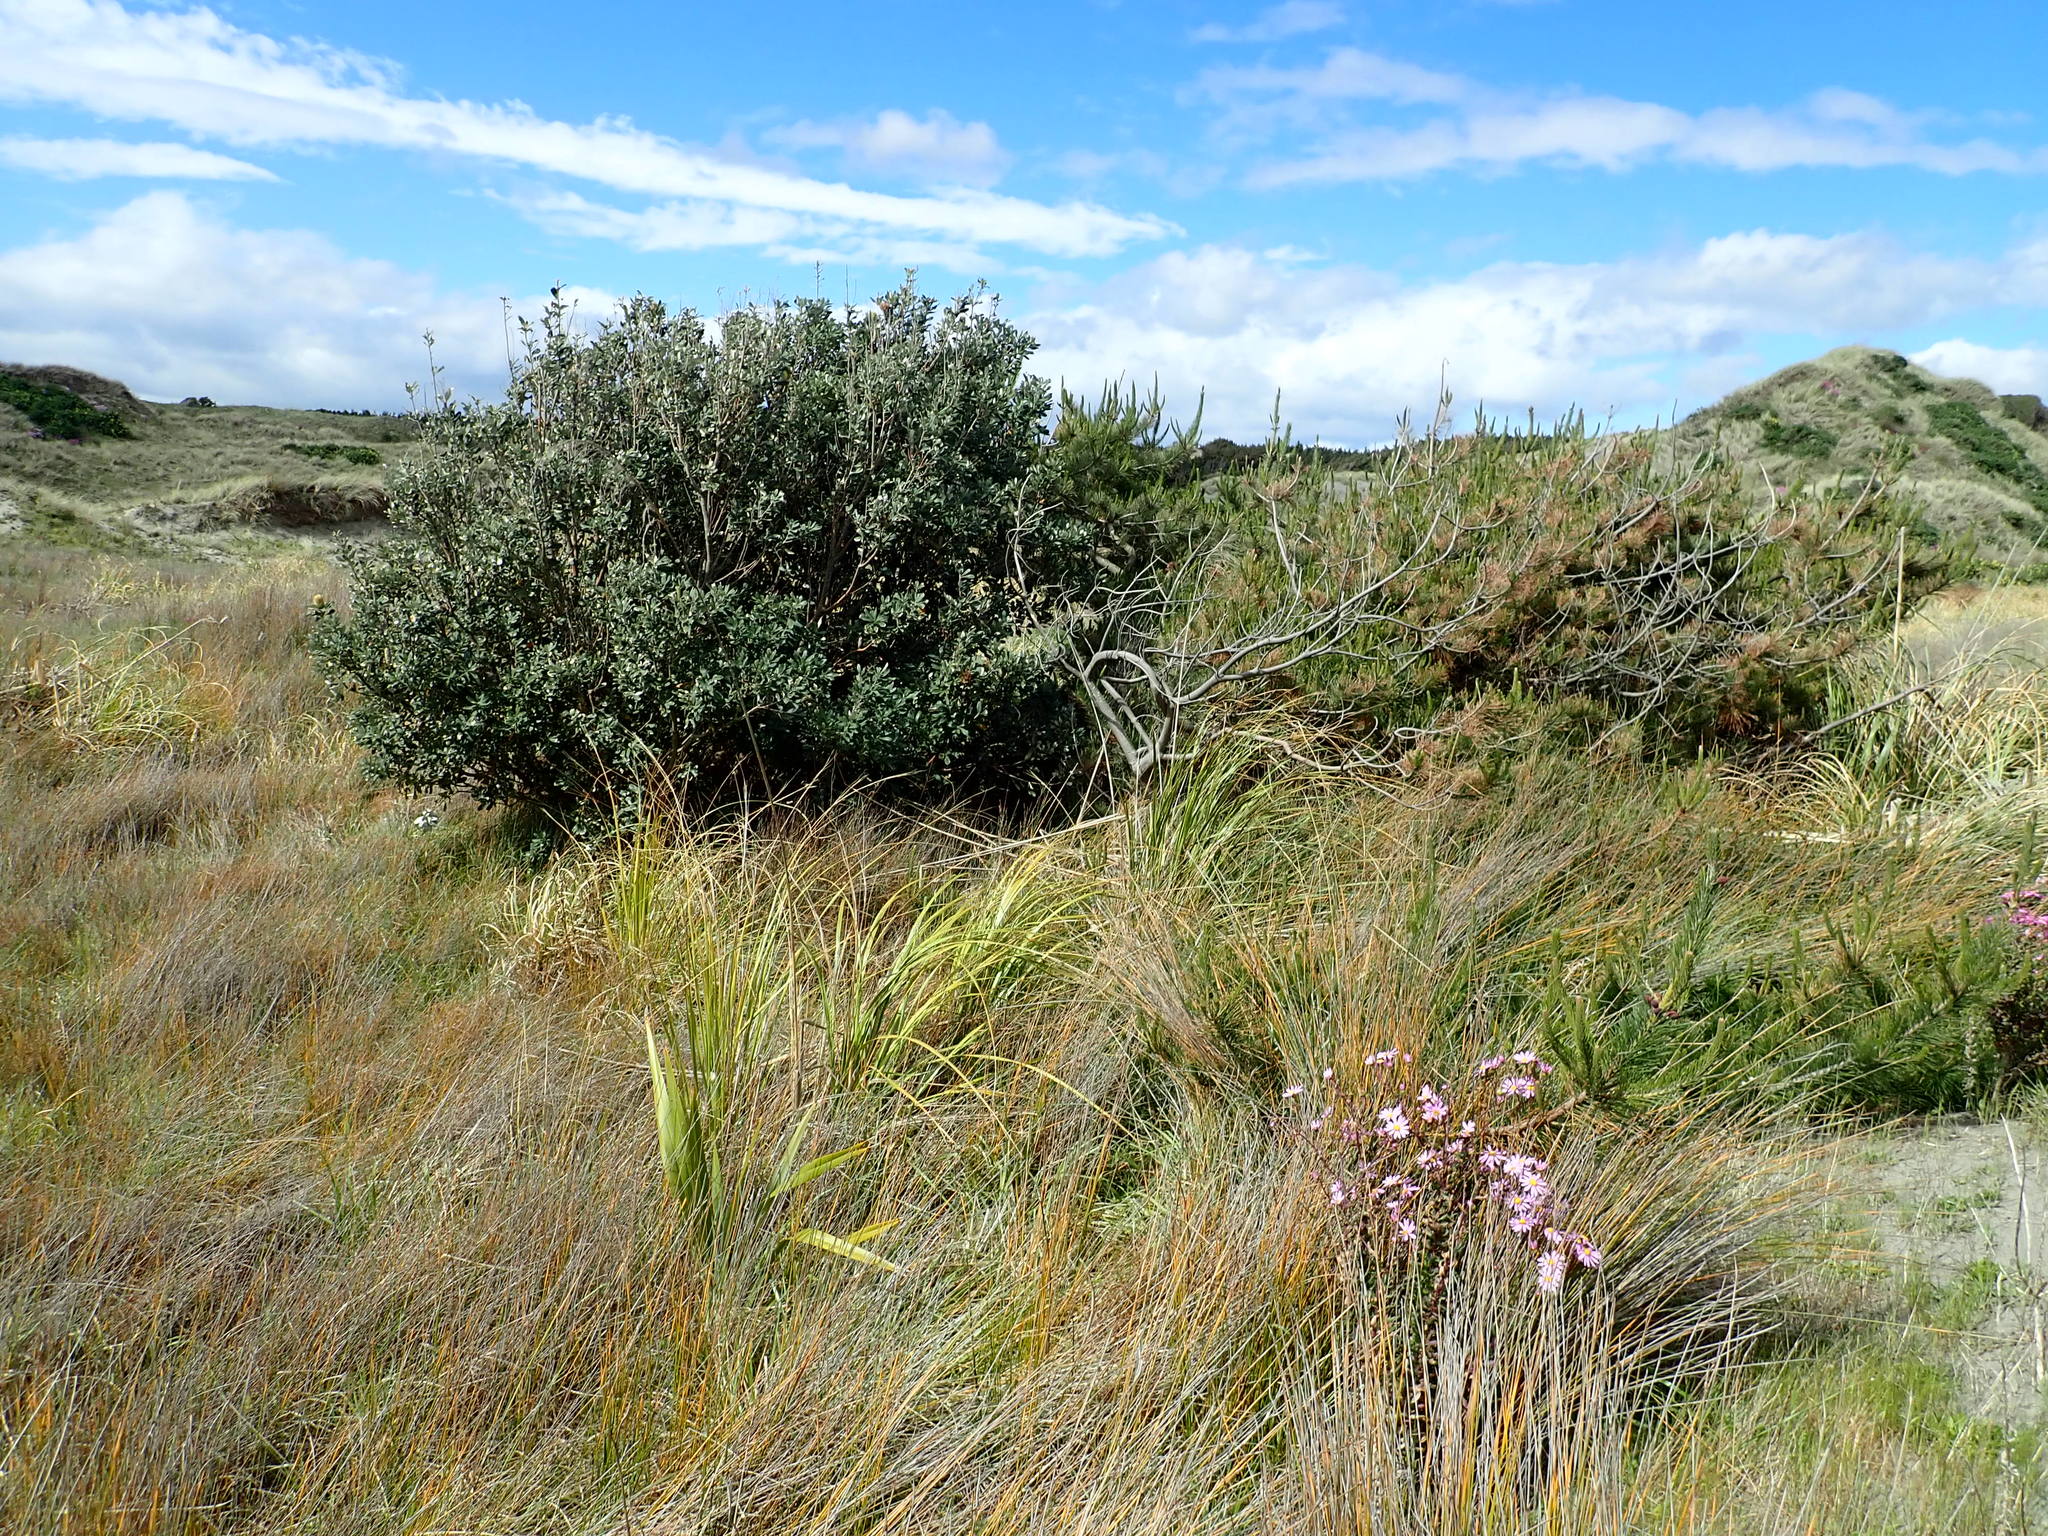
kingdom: Plantae
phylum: Tracheophyta
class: Magnoliopsida
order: Proteales
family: Proteaceae
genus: Banksia
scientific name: Banksia integrifolia
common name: White-honeysuckle
